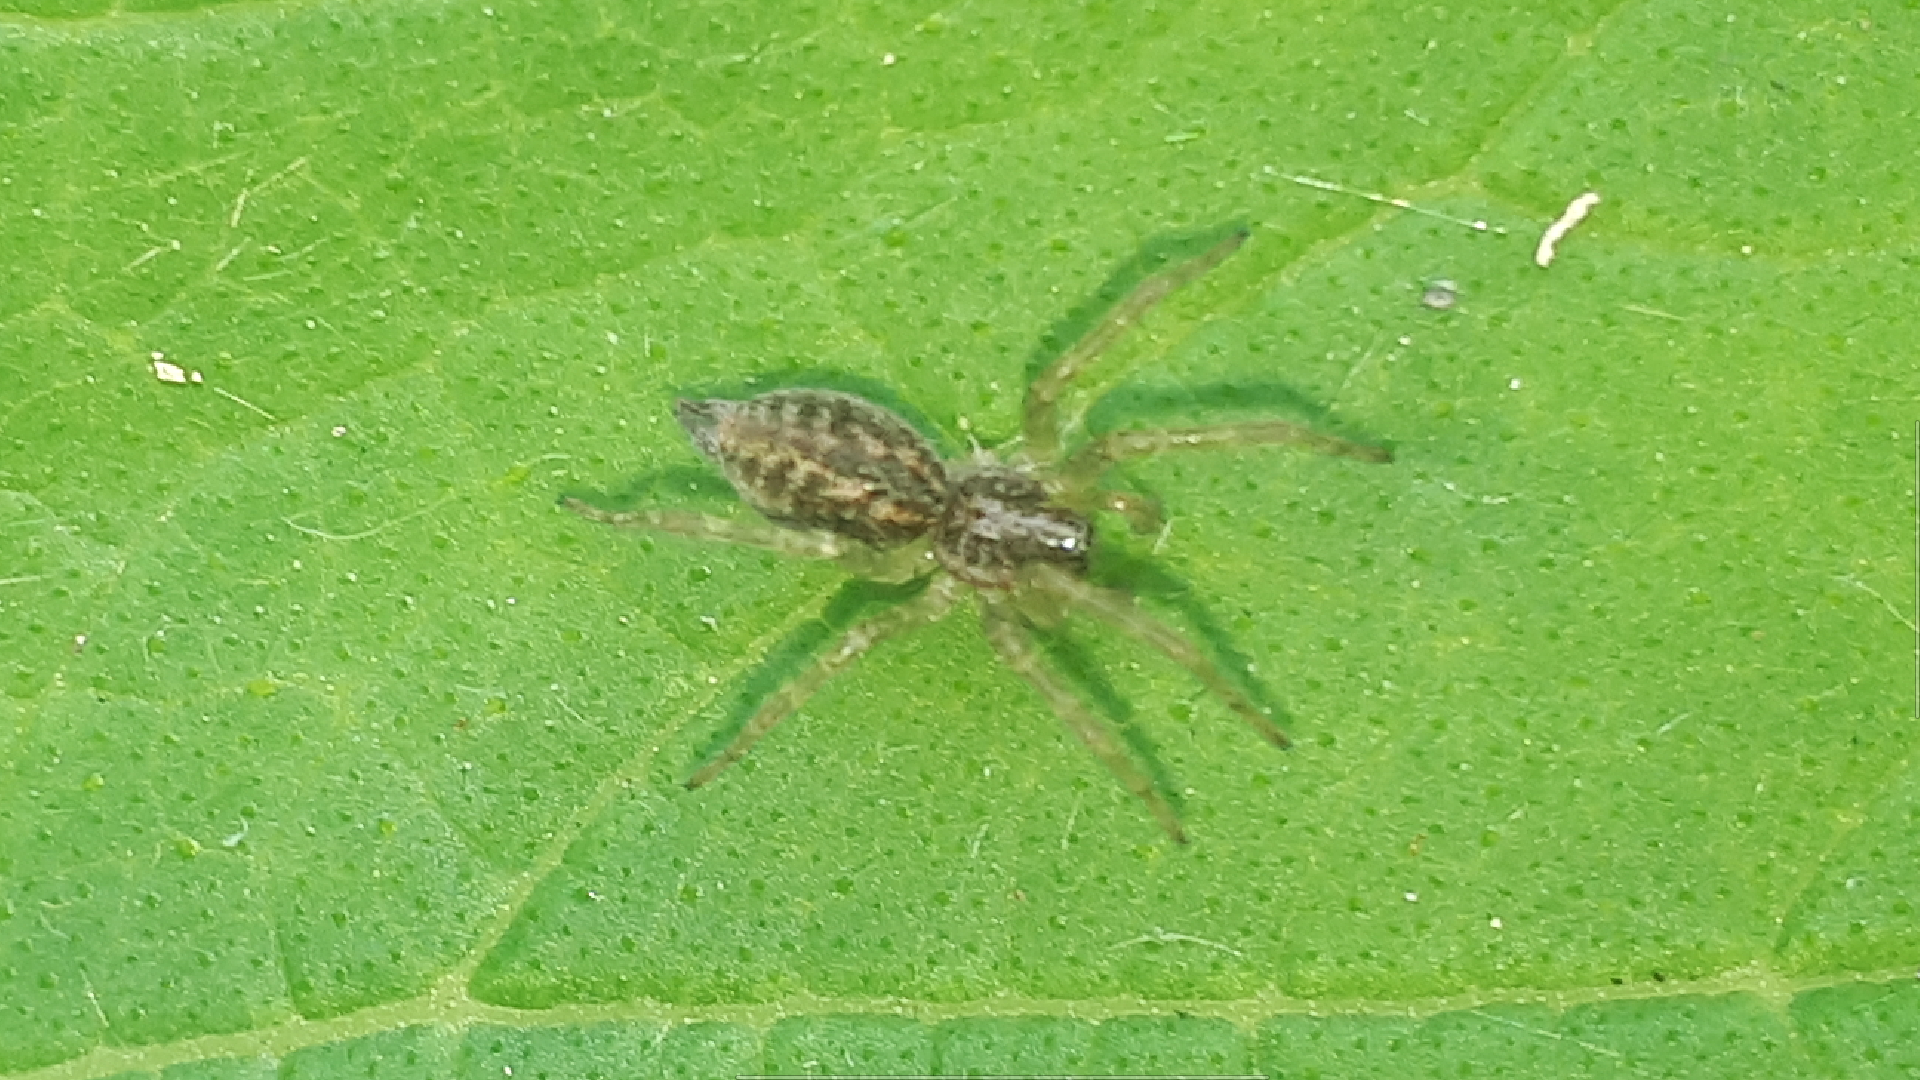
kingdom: Animalia
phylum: Arthropoda
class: Arachnida
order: Araneae
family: Agelenidae
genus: Allagelena
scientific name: Allagelena gracilens
